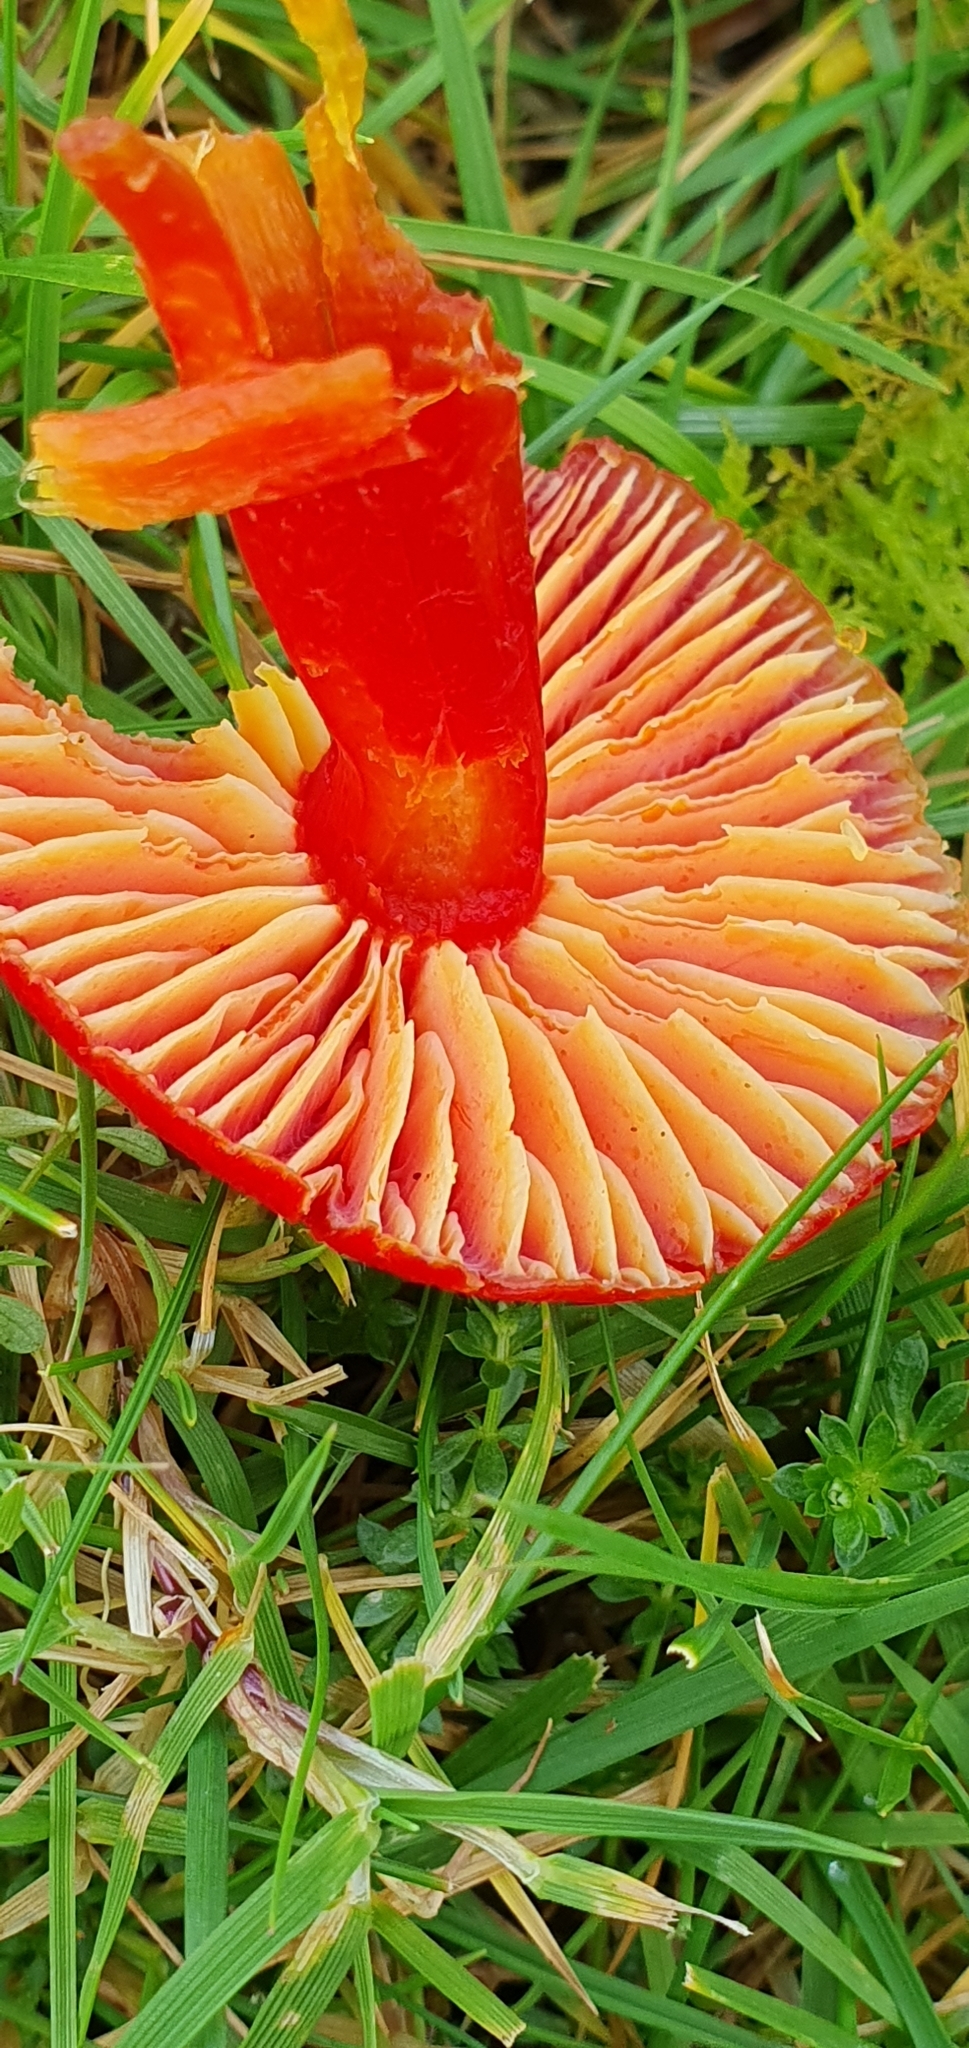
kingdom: Fungi
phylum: Basidiomycota
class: Agaricomycetes
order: Agaricales
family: Hygrophoraceae
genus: Hygrocybe
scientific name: Hygrocybe coccinea
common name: Scarlet hood
